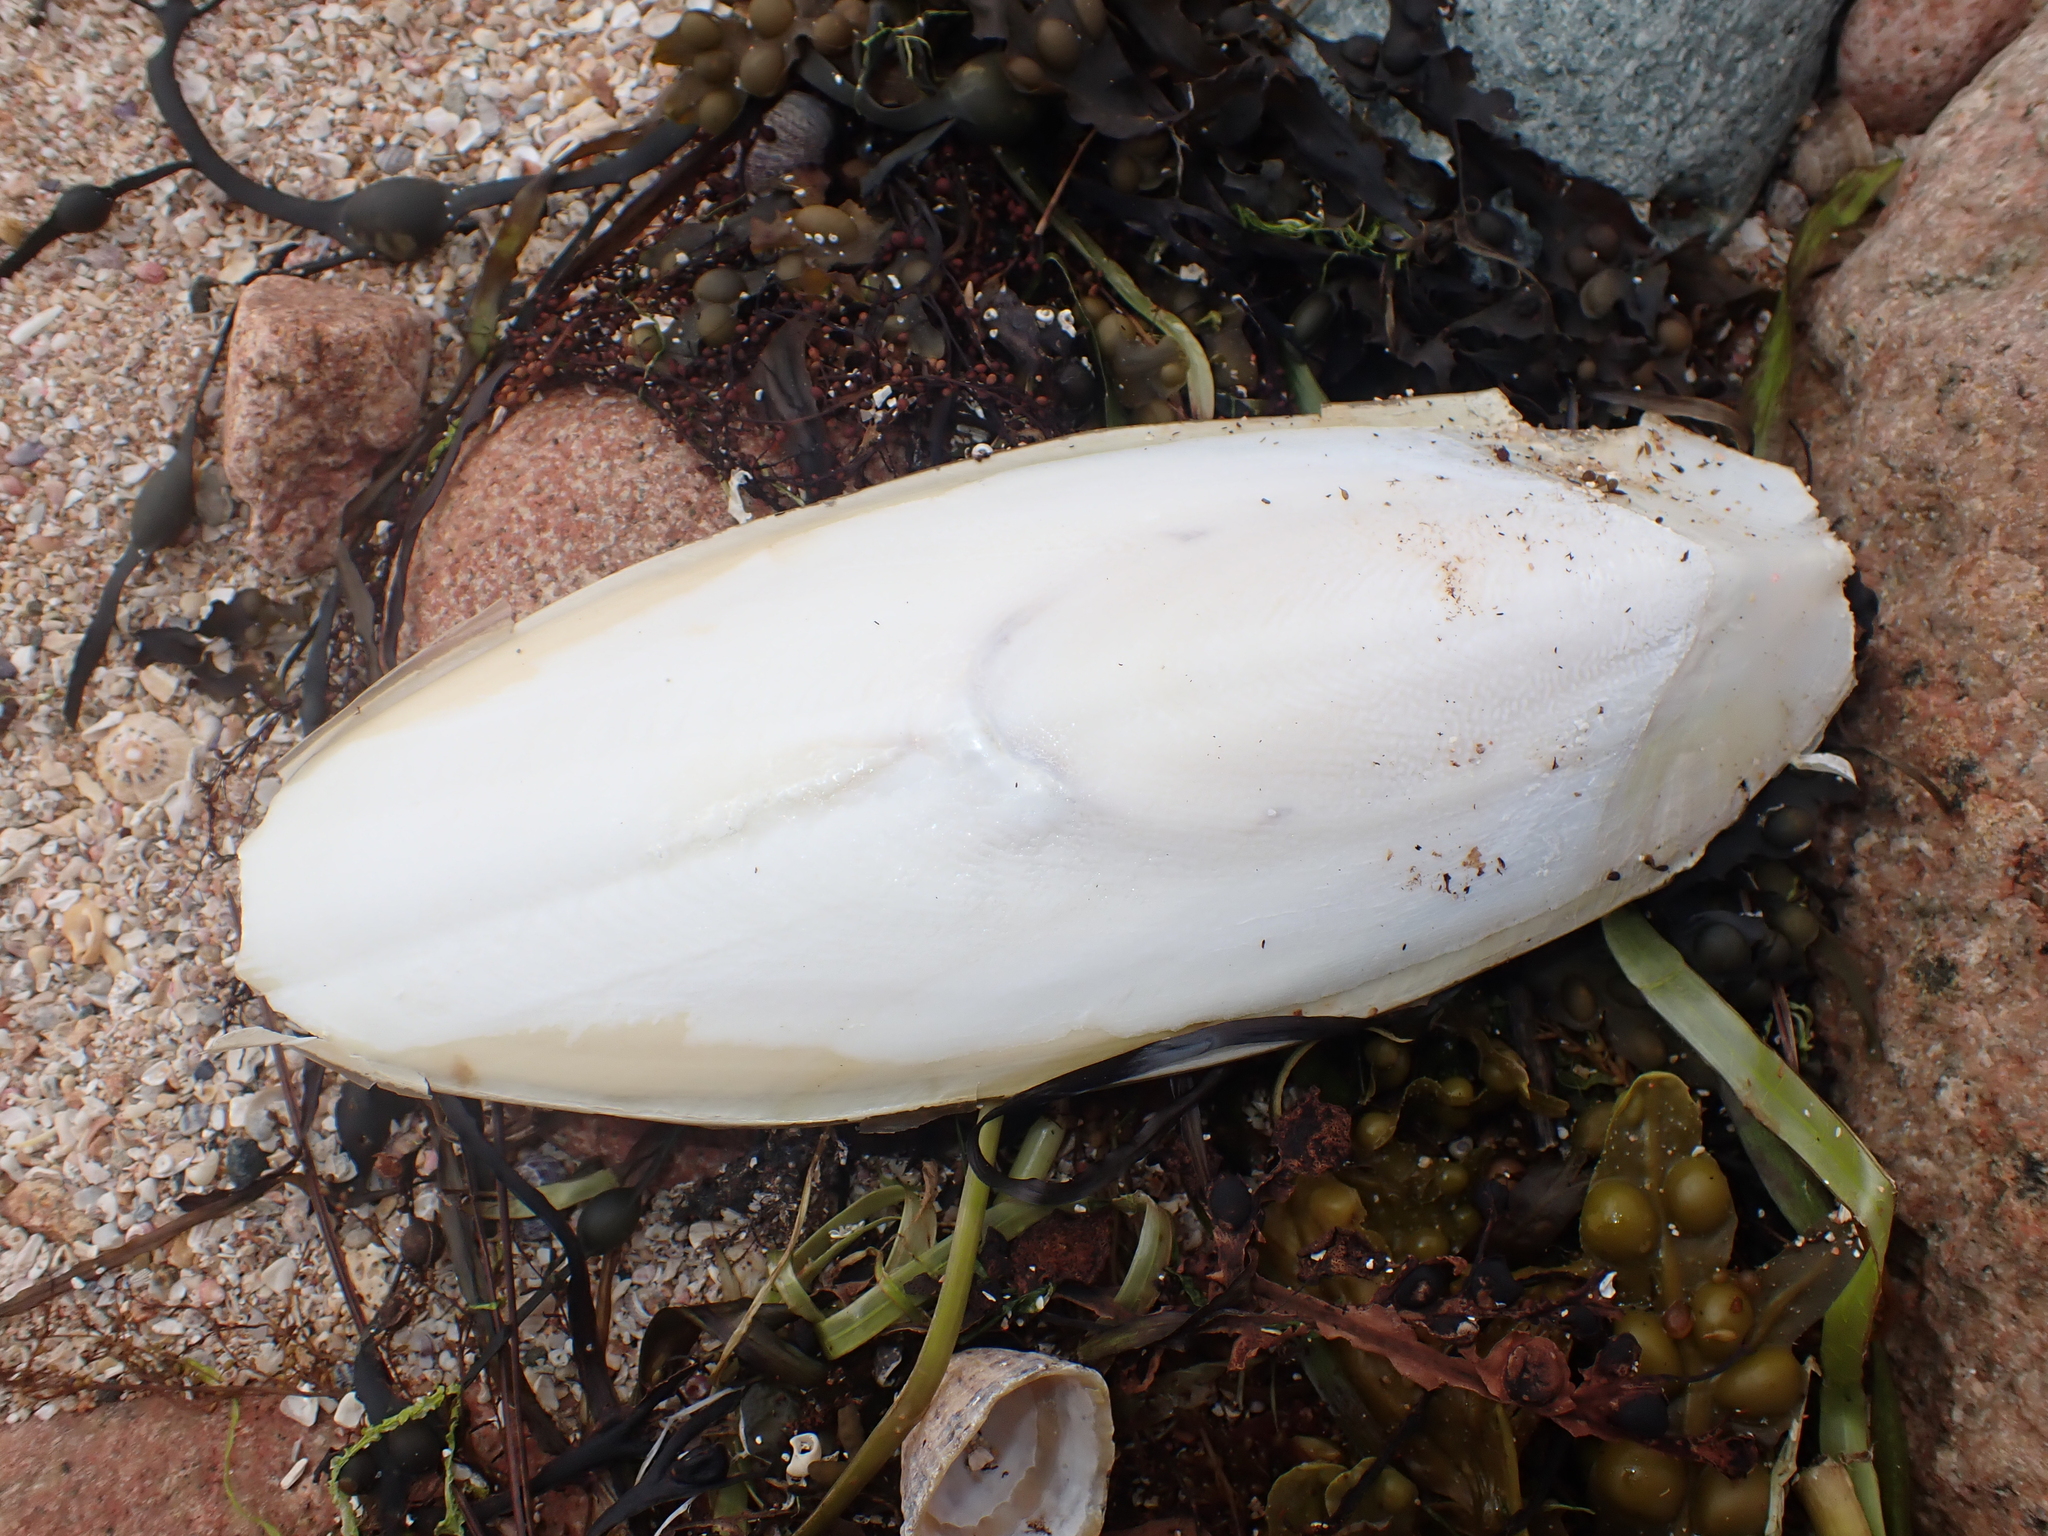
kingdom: Animalia
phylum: Mollusca
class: Cephalopoda
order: Sepiida
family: Sepiidae
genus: Sepia
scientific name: Sepia officinalis
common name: Common cuttlefish
